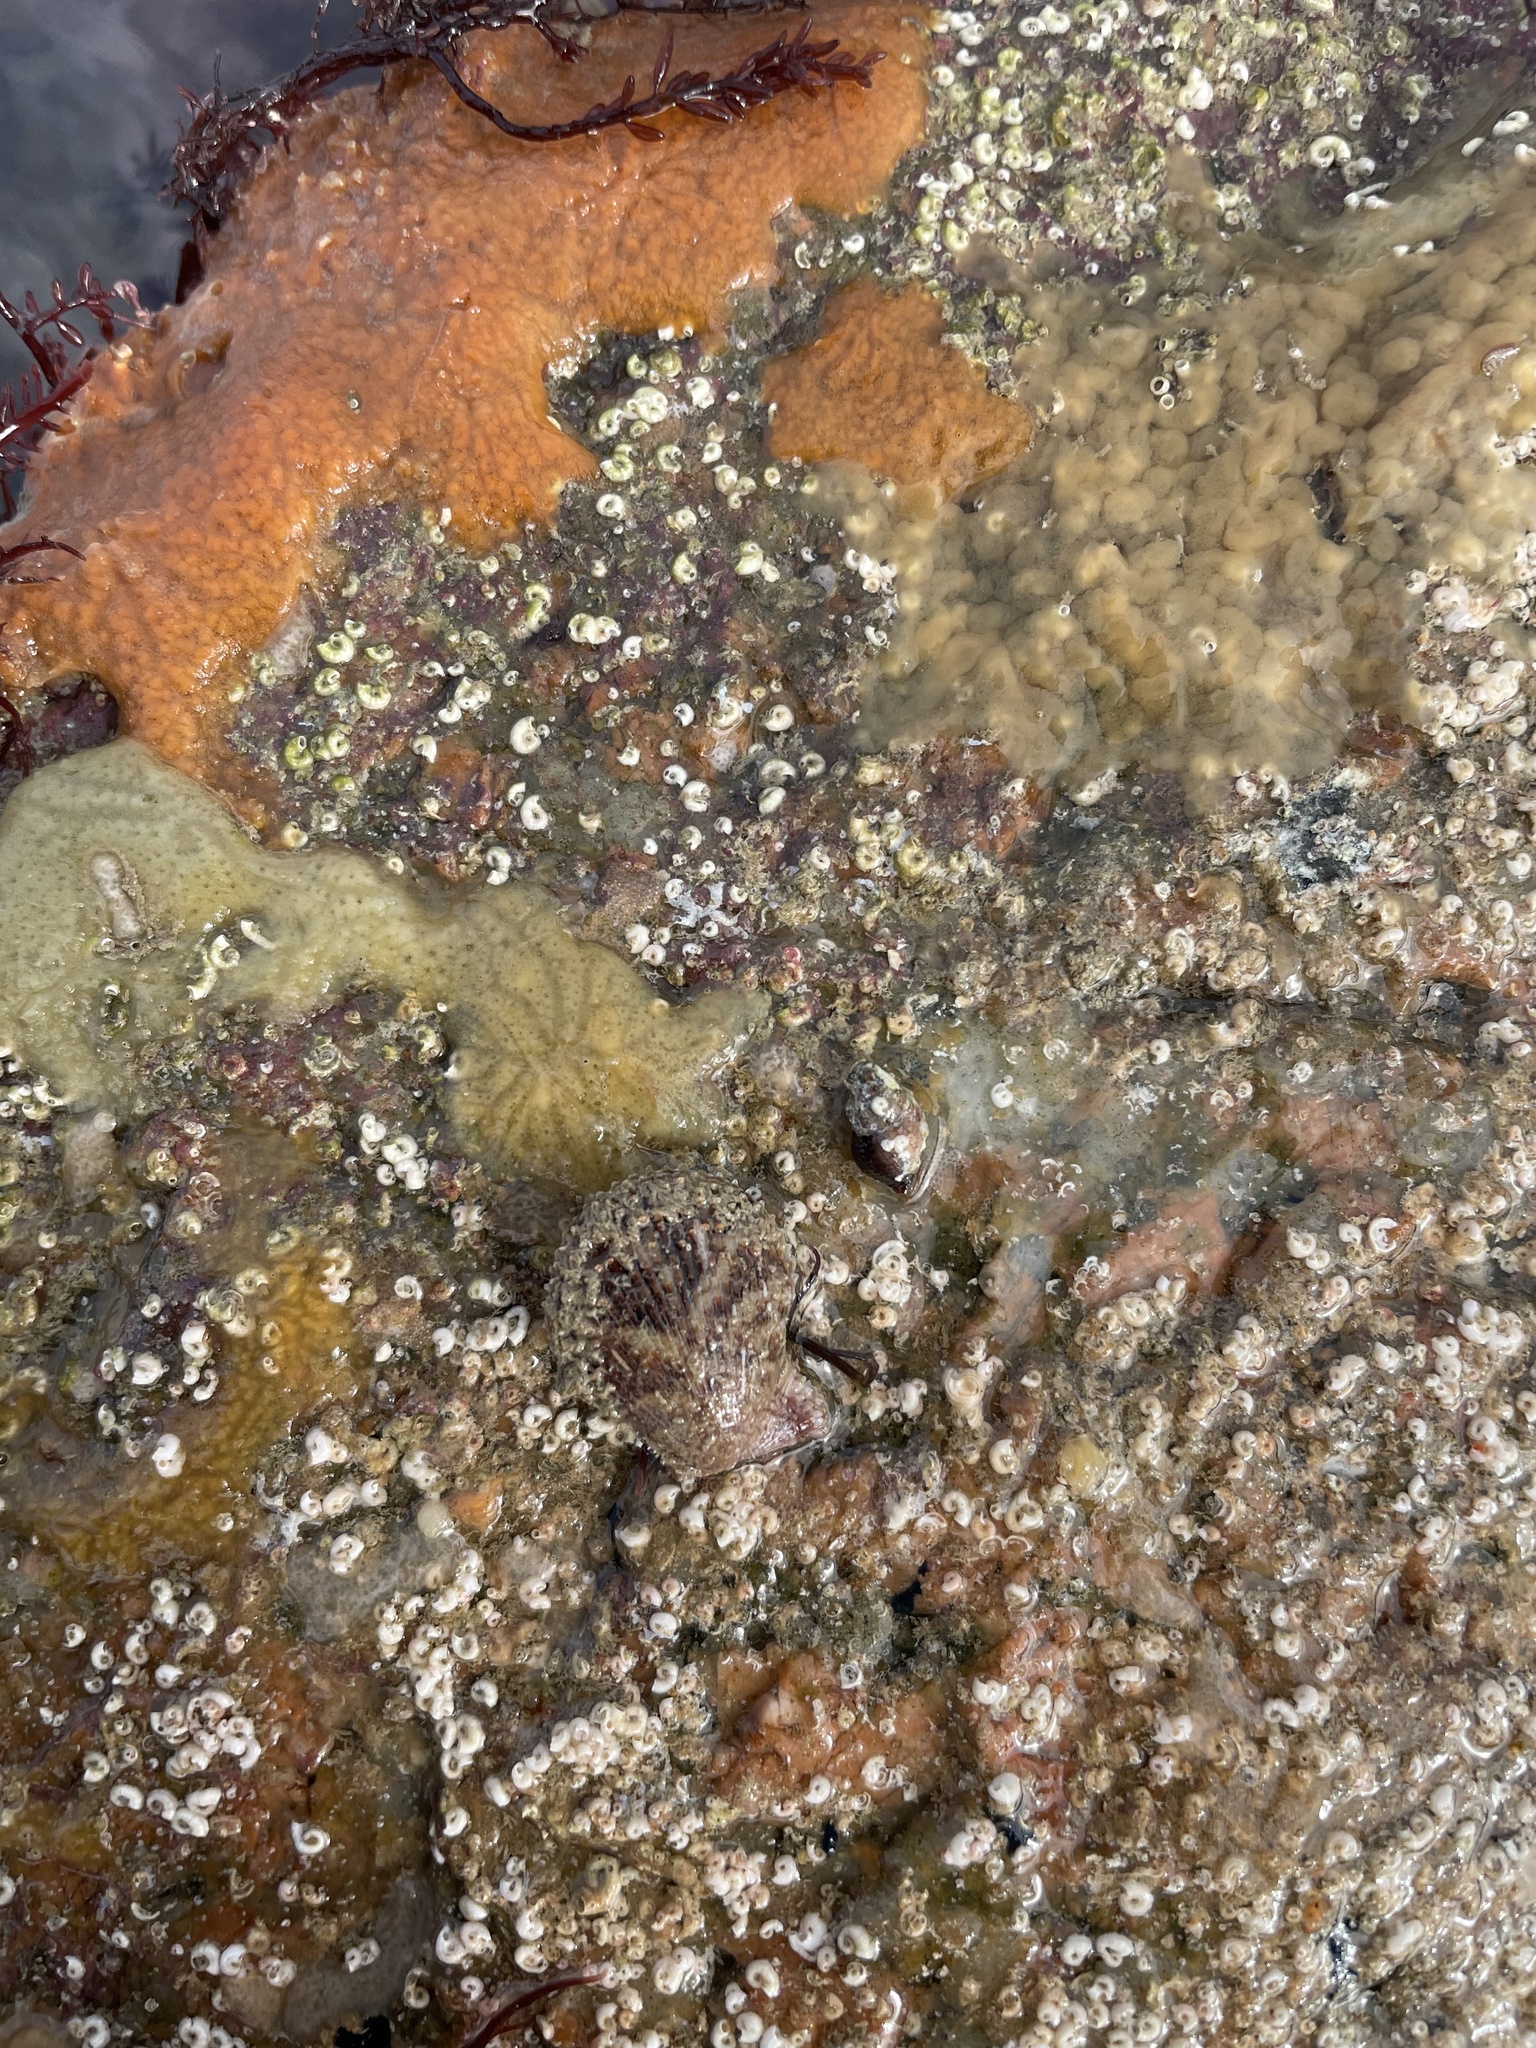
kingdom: Animalia
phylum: Mollusca
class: Bivalvia
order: Pectinida
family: Pectinidae
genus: Mimachlamys
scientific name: Mimachlamys varia
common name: Variegated scallop
